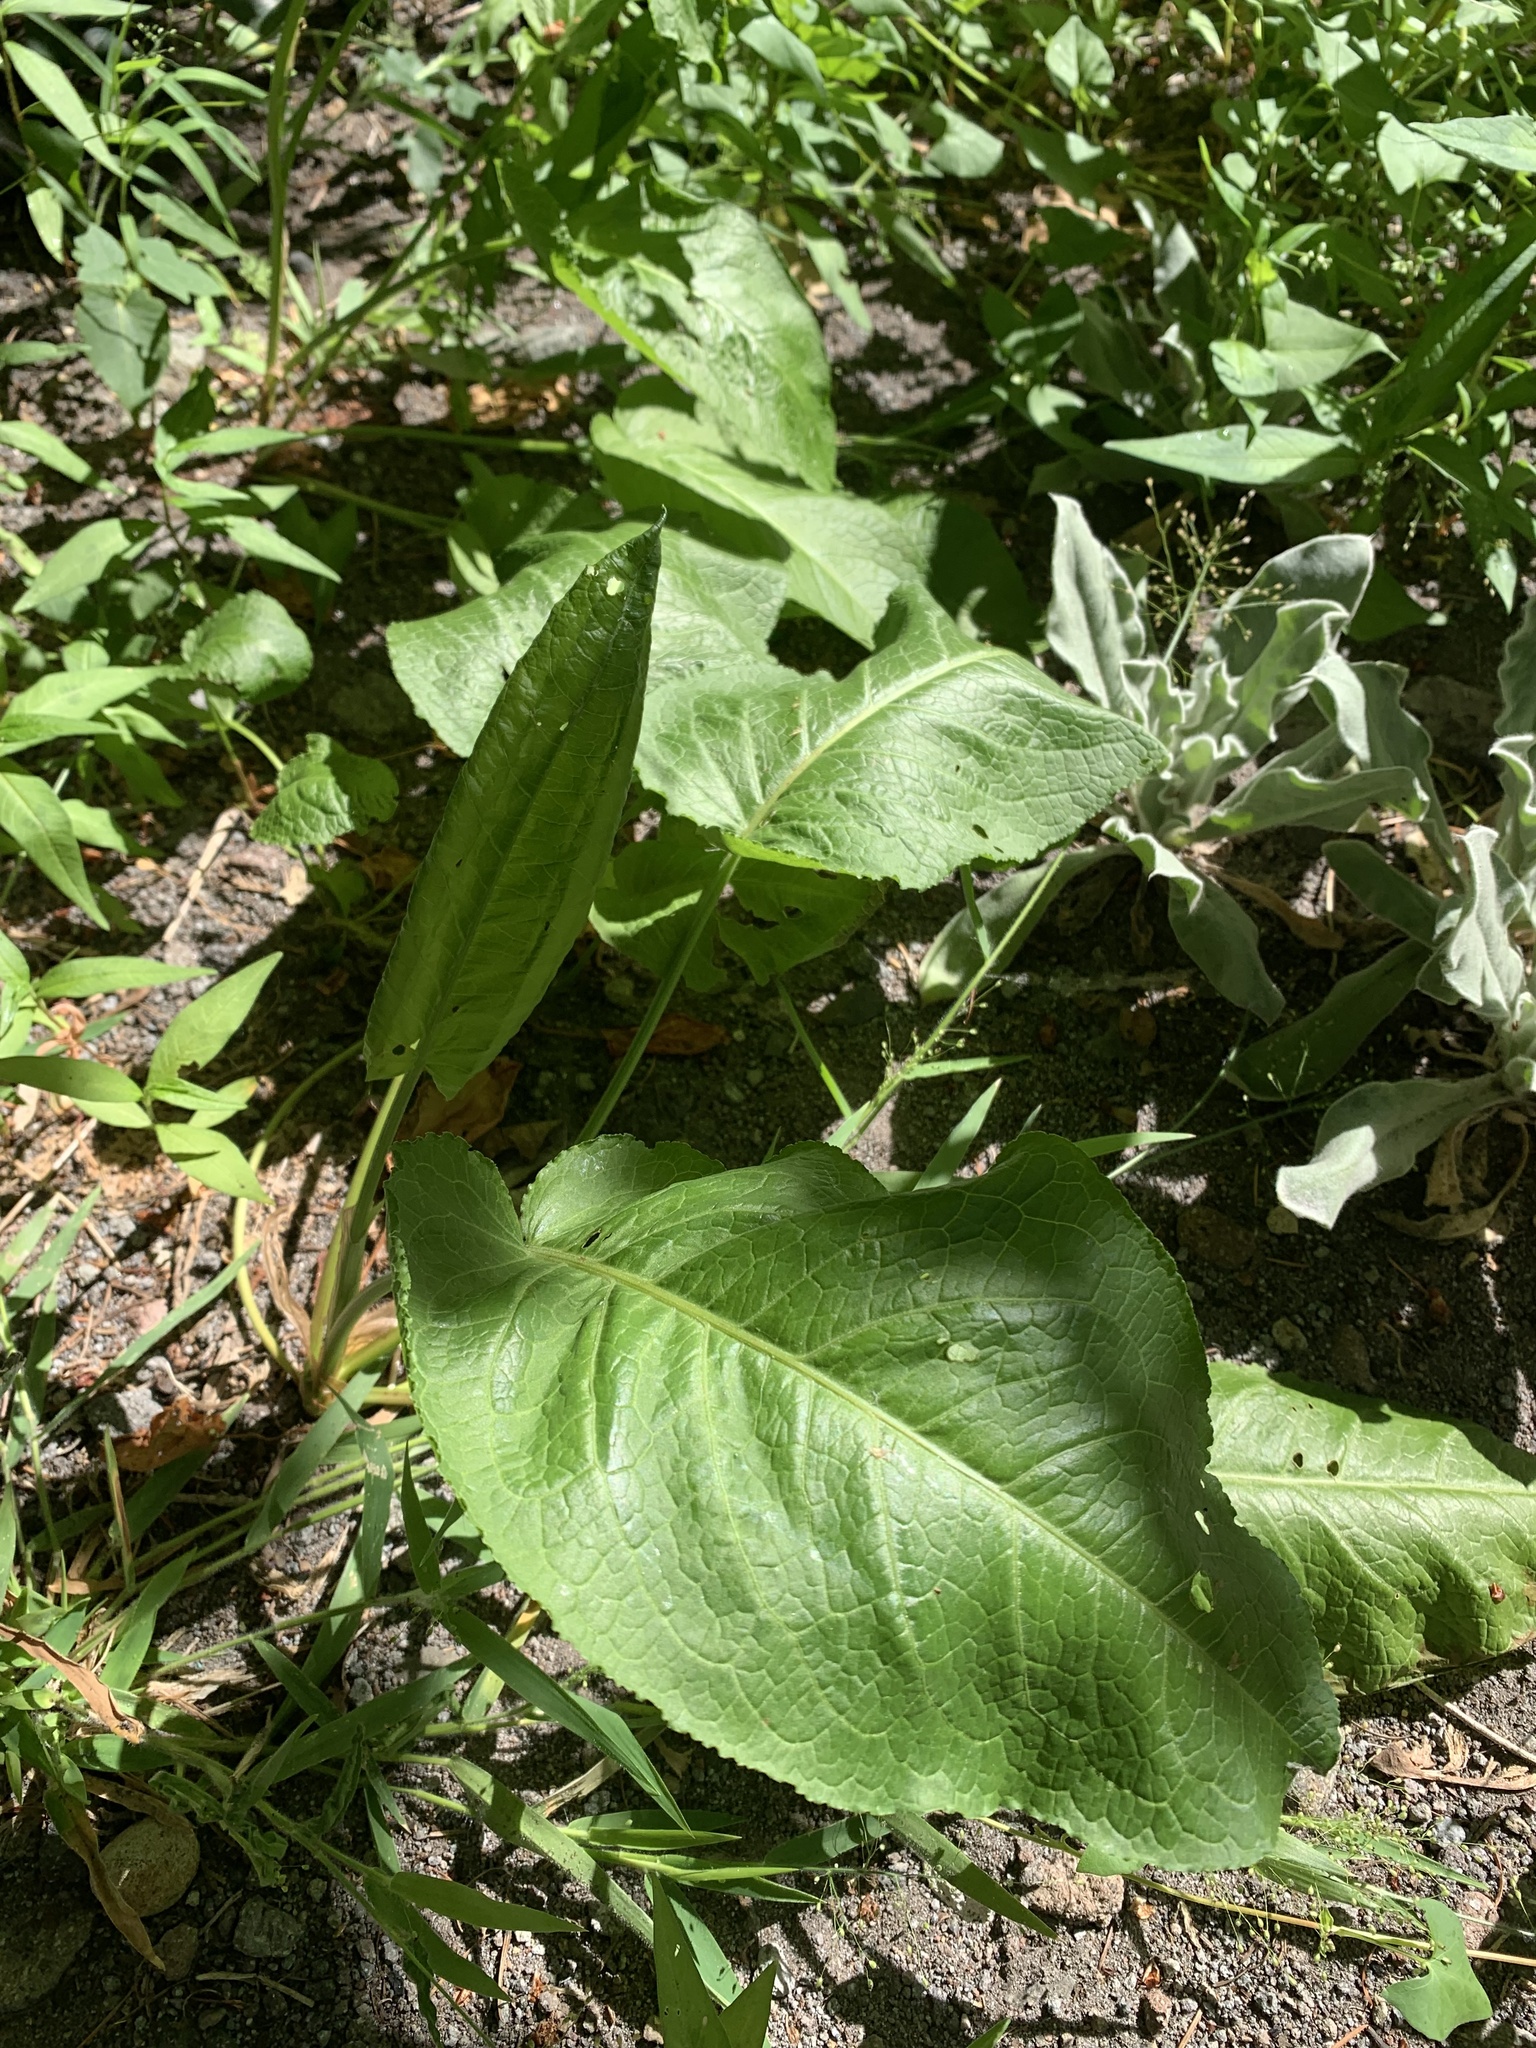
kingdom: Plantae
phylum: Tracheophyta
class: Magnoliopsida
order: Caryophyllales
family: Polygonaceae
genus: Rumex
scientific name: Rumex obtusifolius
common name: Bitter dock
